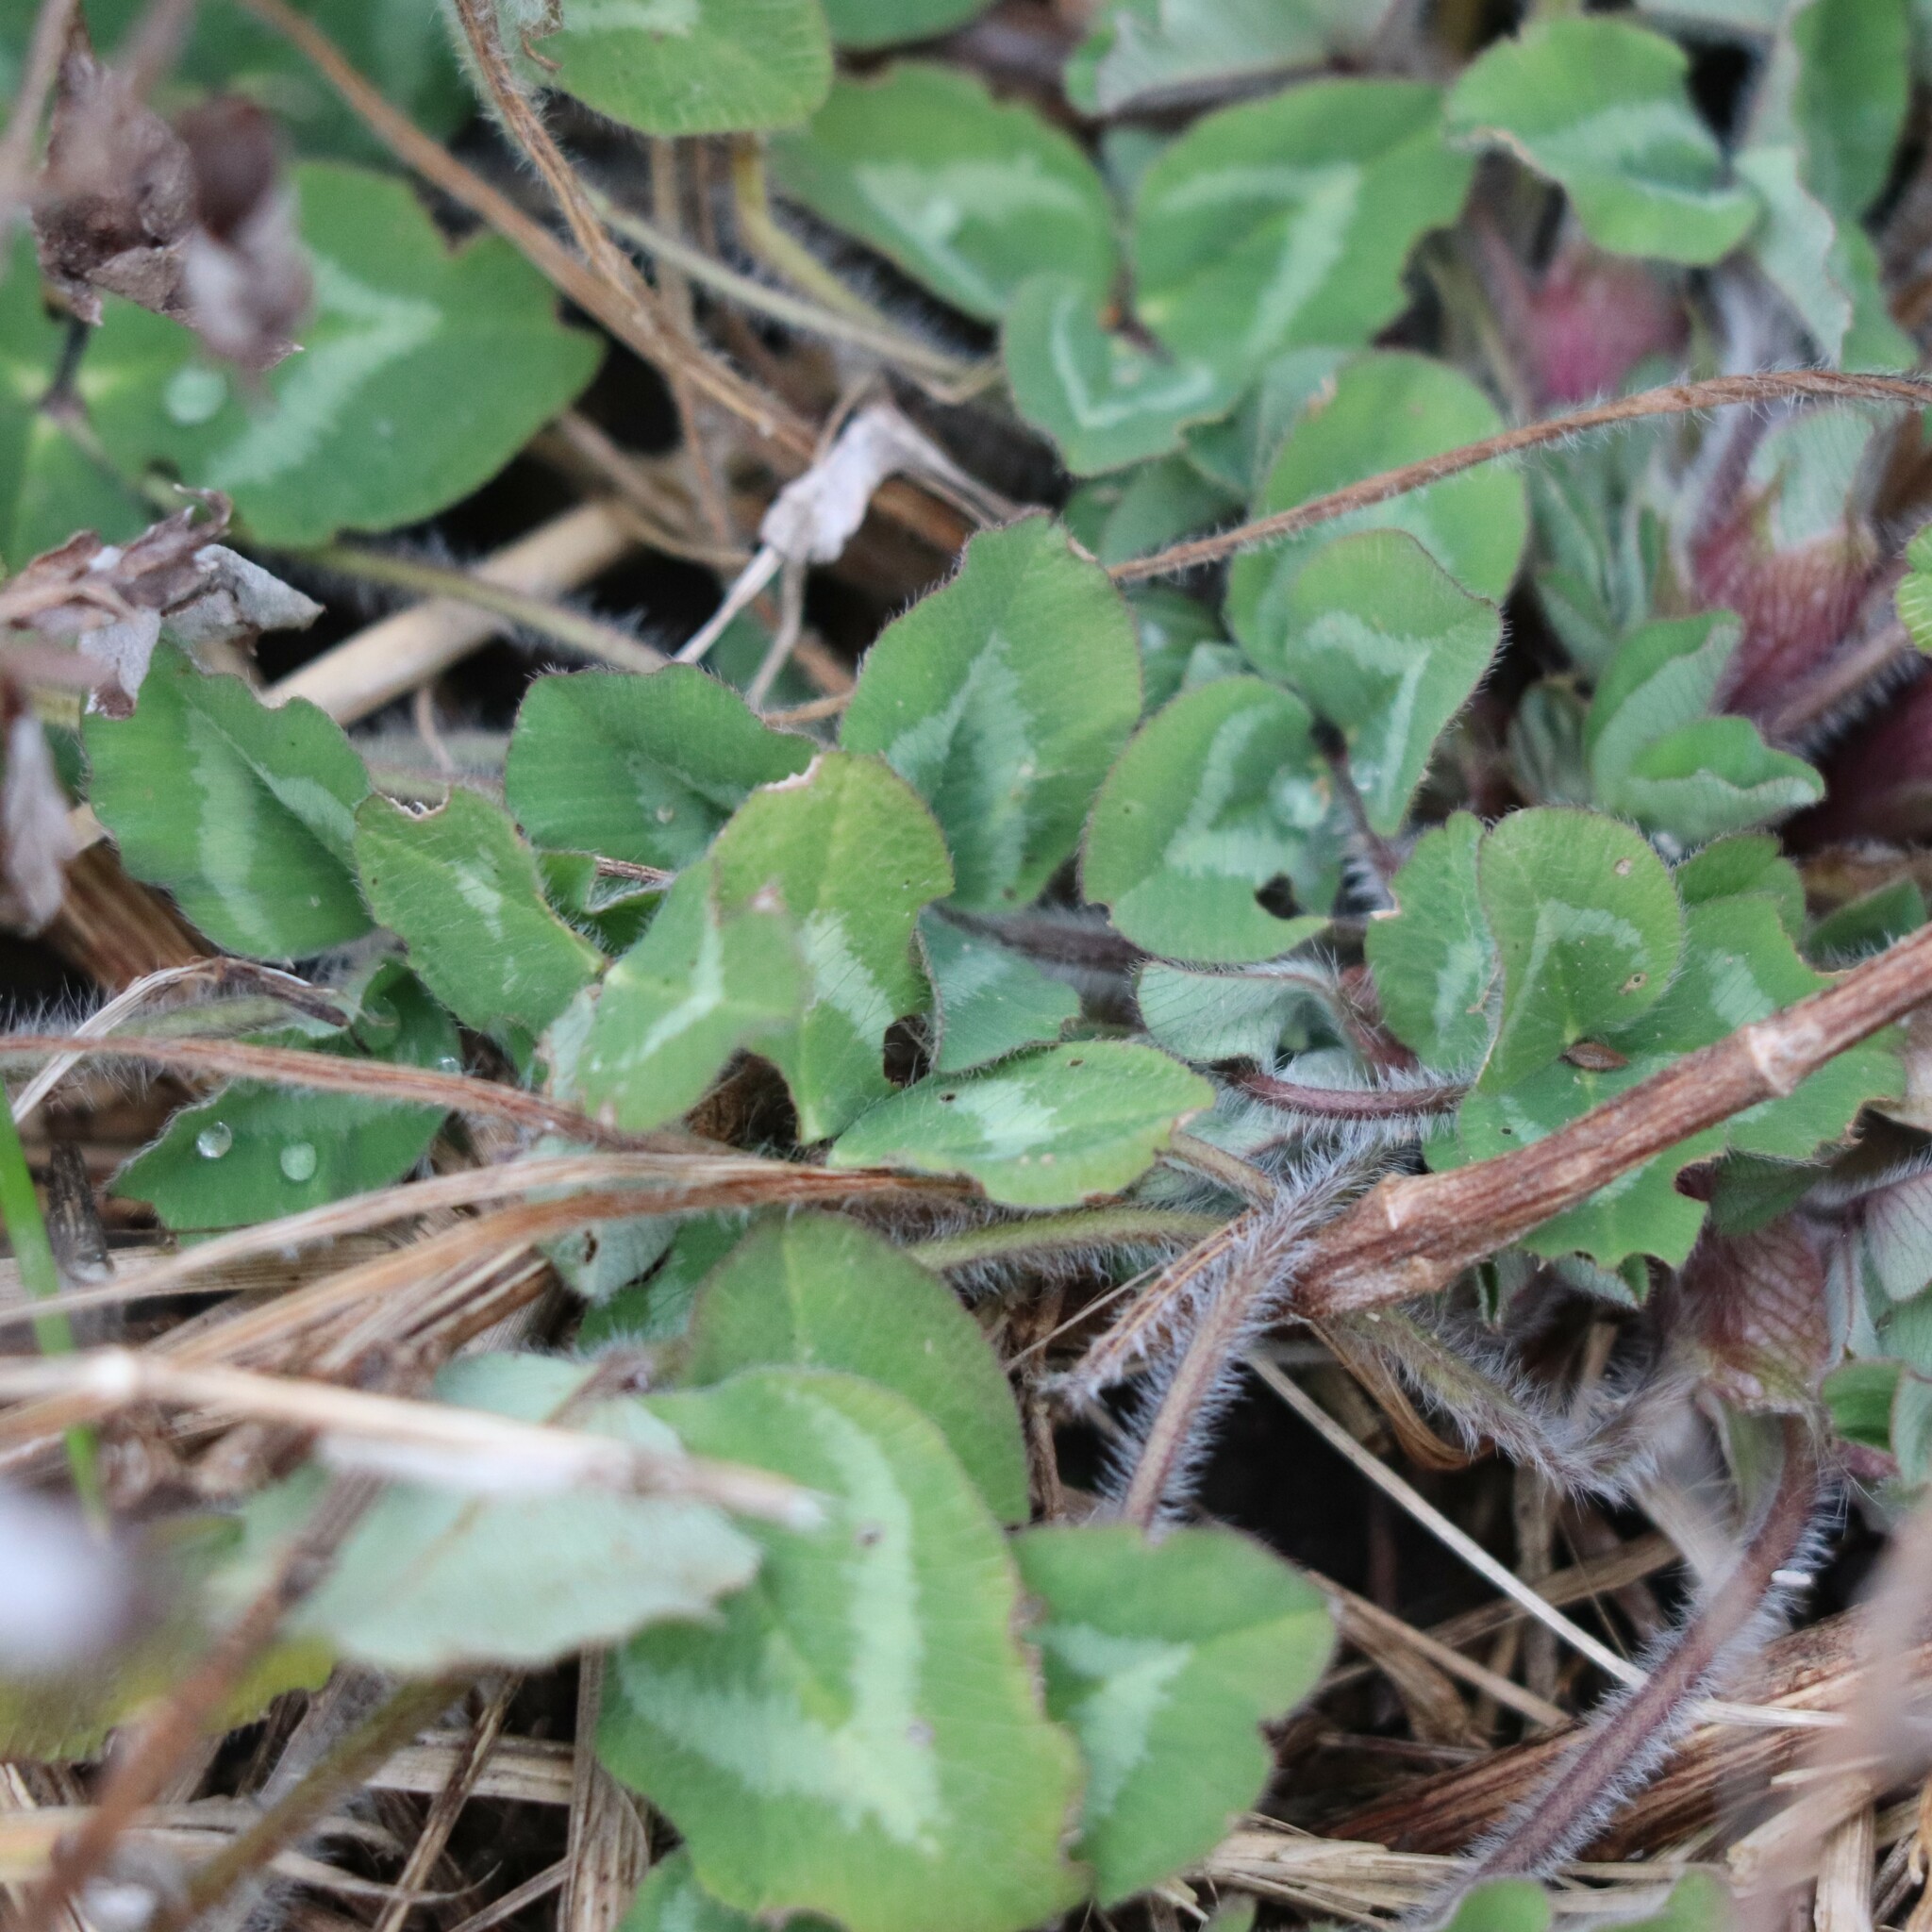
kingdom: Plantae
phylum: Tracheophyta
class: Magnoliopsida
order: Fabales
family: Fabaceae
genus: Trifolium
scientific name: Trifolium pratense
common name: Red clover
